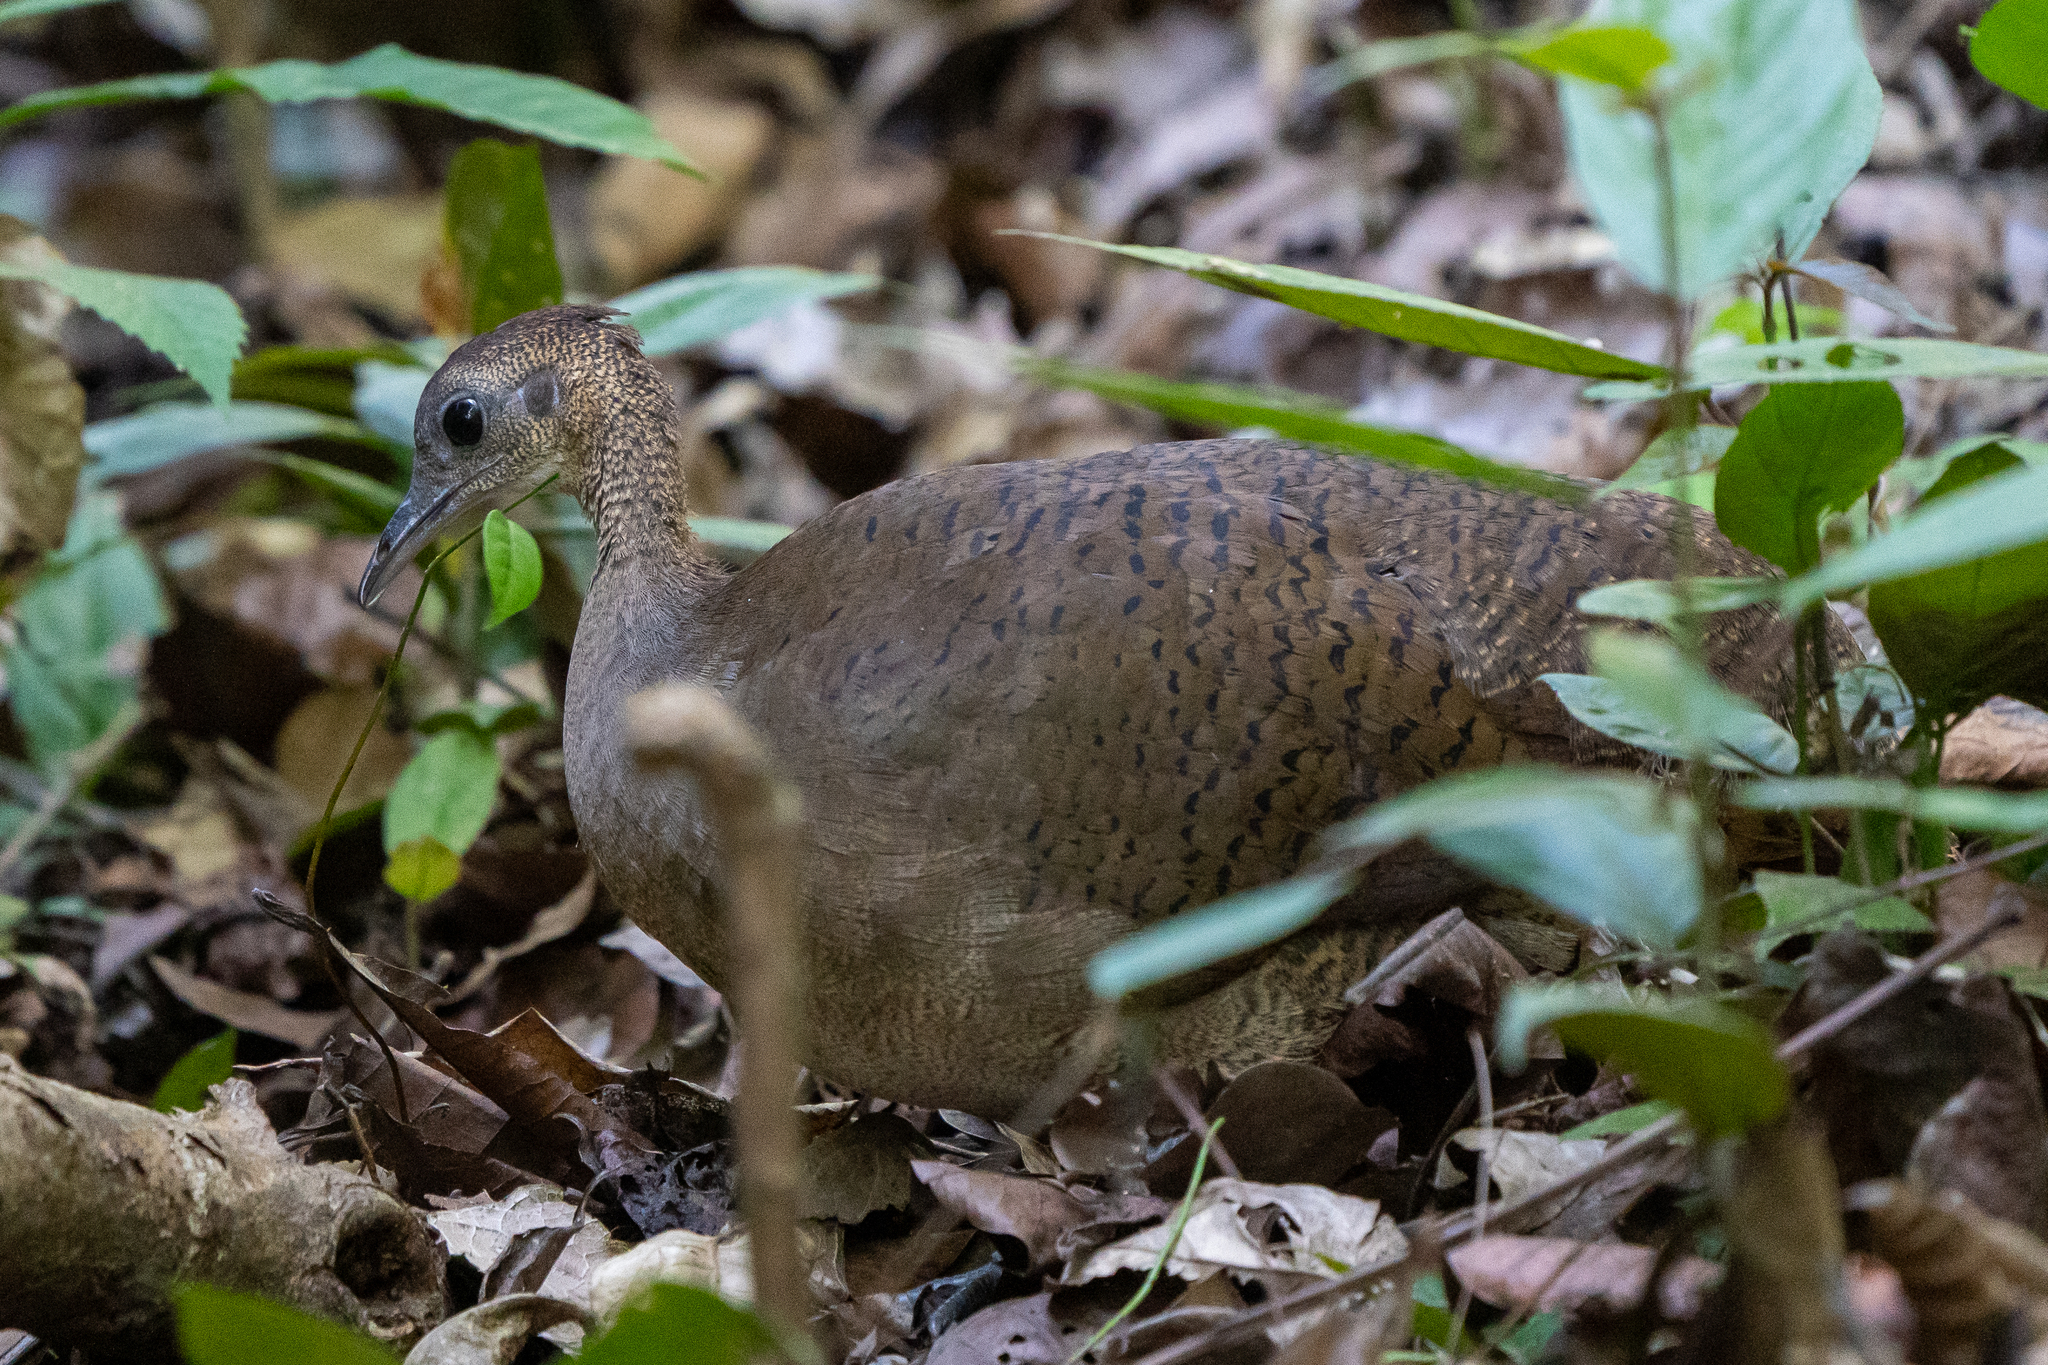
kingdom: Animalia
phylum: Chordata
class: Aves
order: Tinamiformes
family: Tinamidae
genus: Tinamus
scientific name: Tinamus major
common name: Great tinamou
